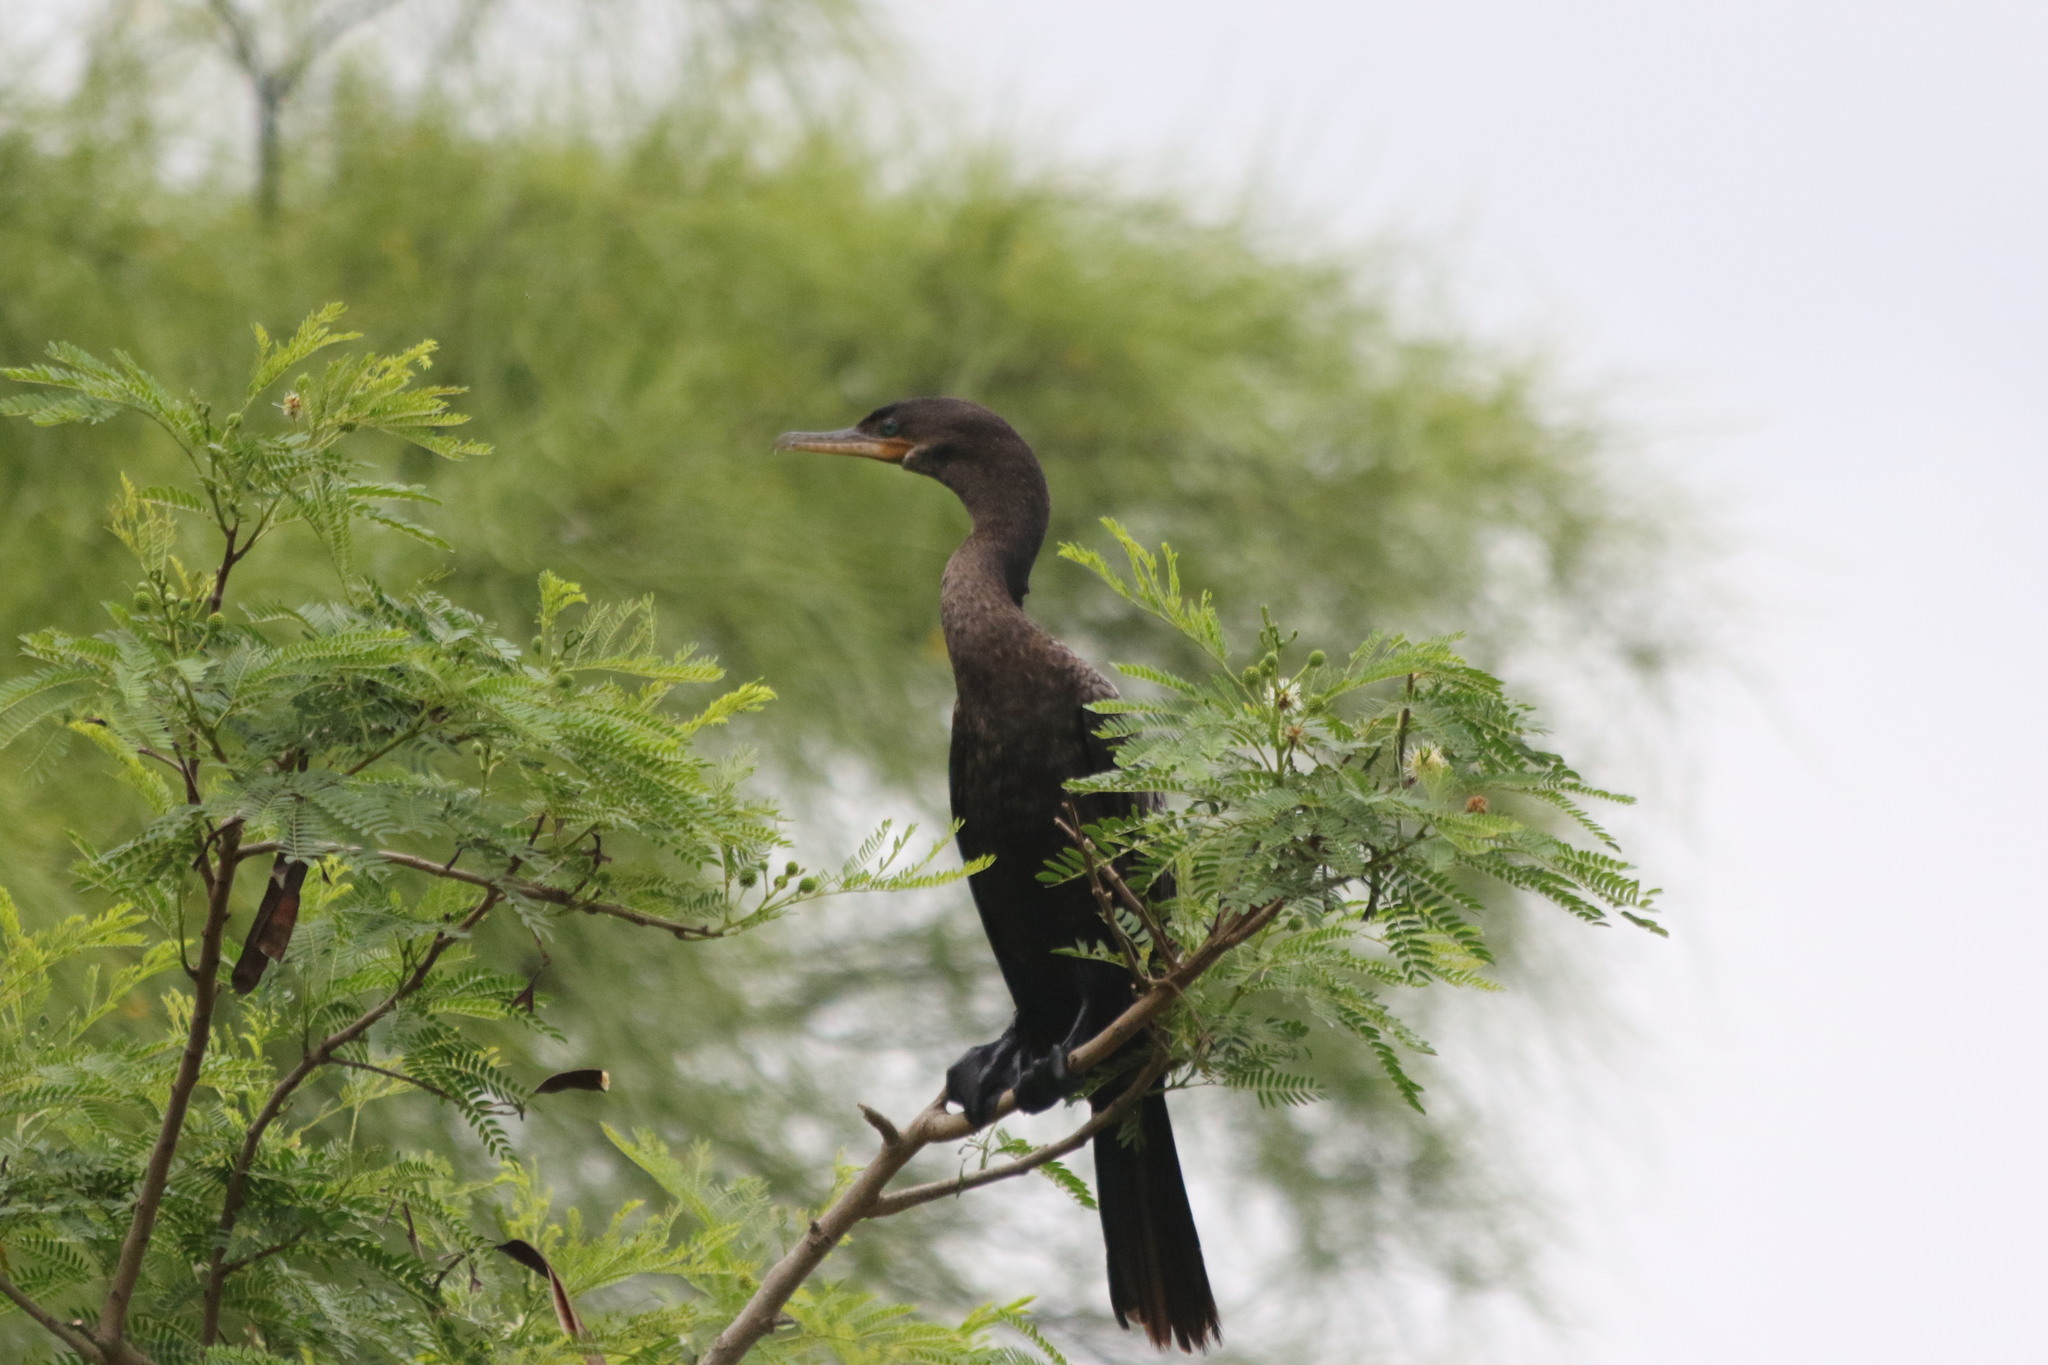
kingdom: Animalia
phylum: Chordata
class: Aves
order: Suliformes
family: Phalacrocoracidae
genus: Phalacrocorax
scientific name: Phalacrocorax brasilianus
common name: Neotropic cormorant
